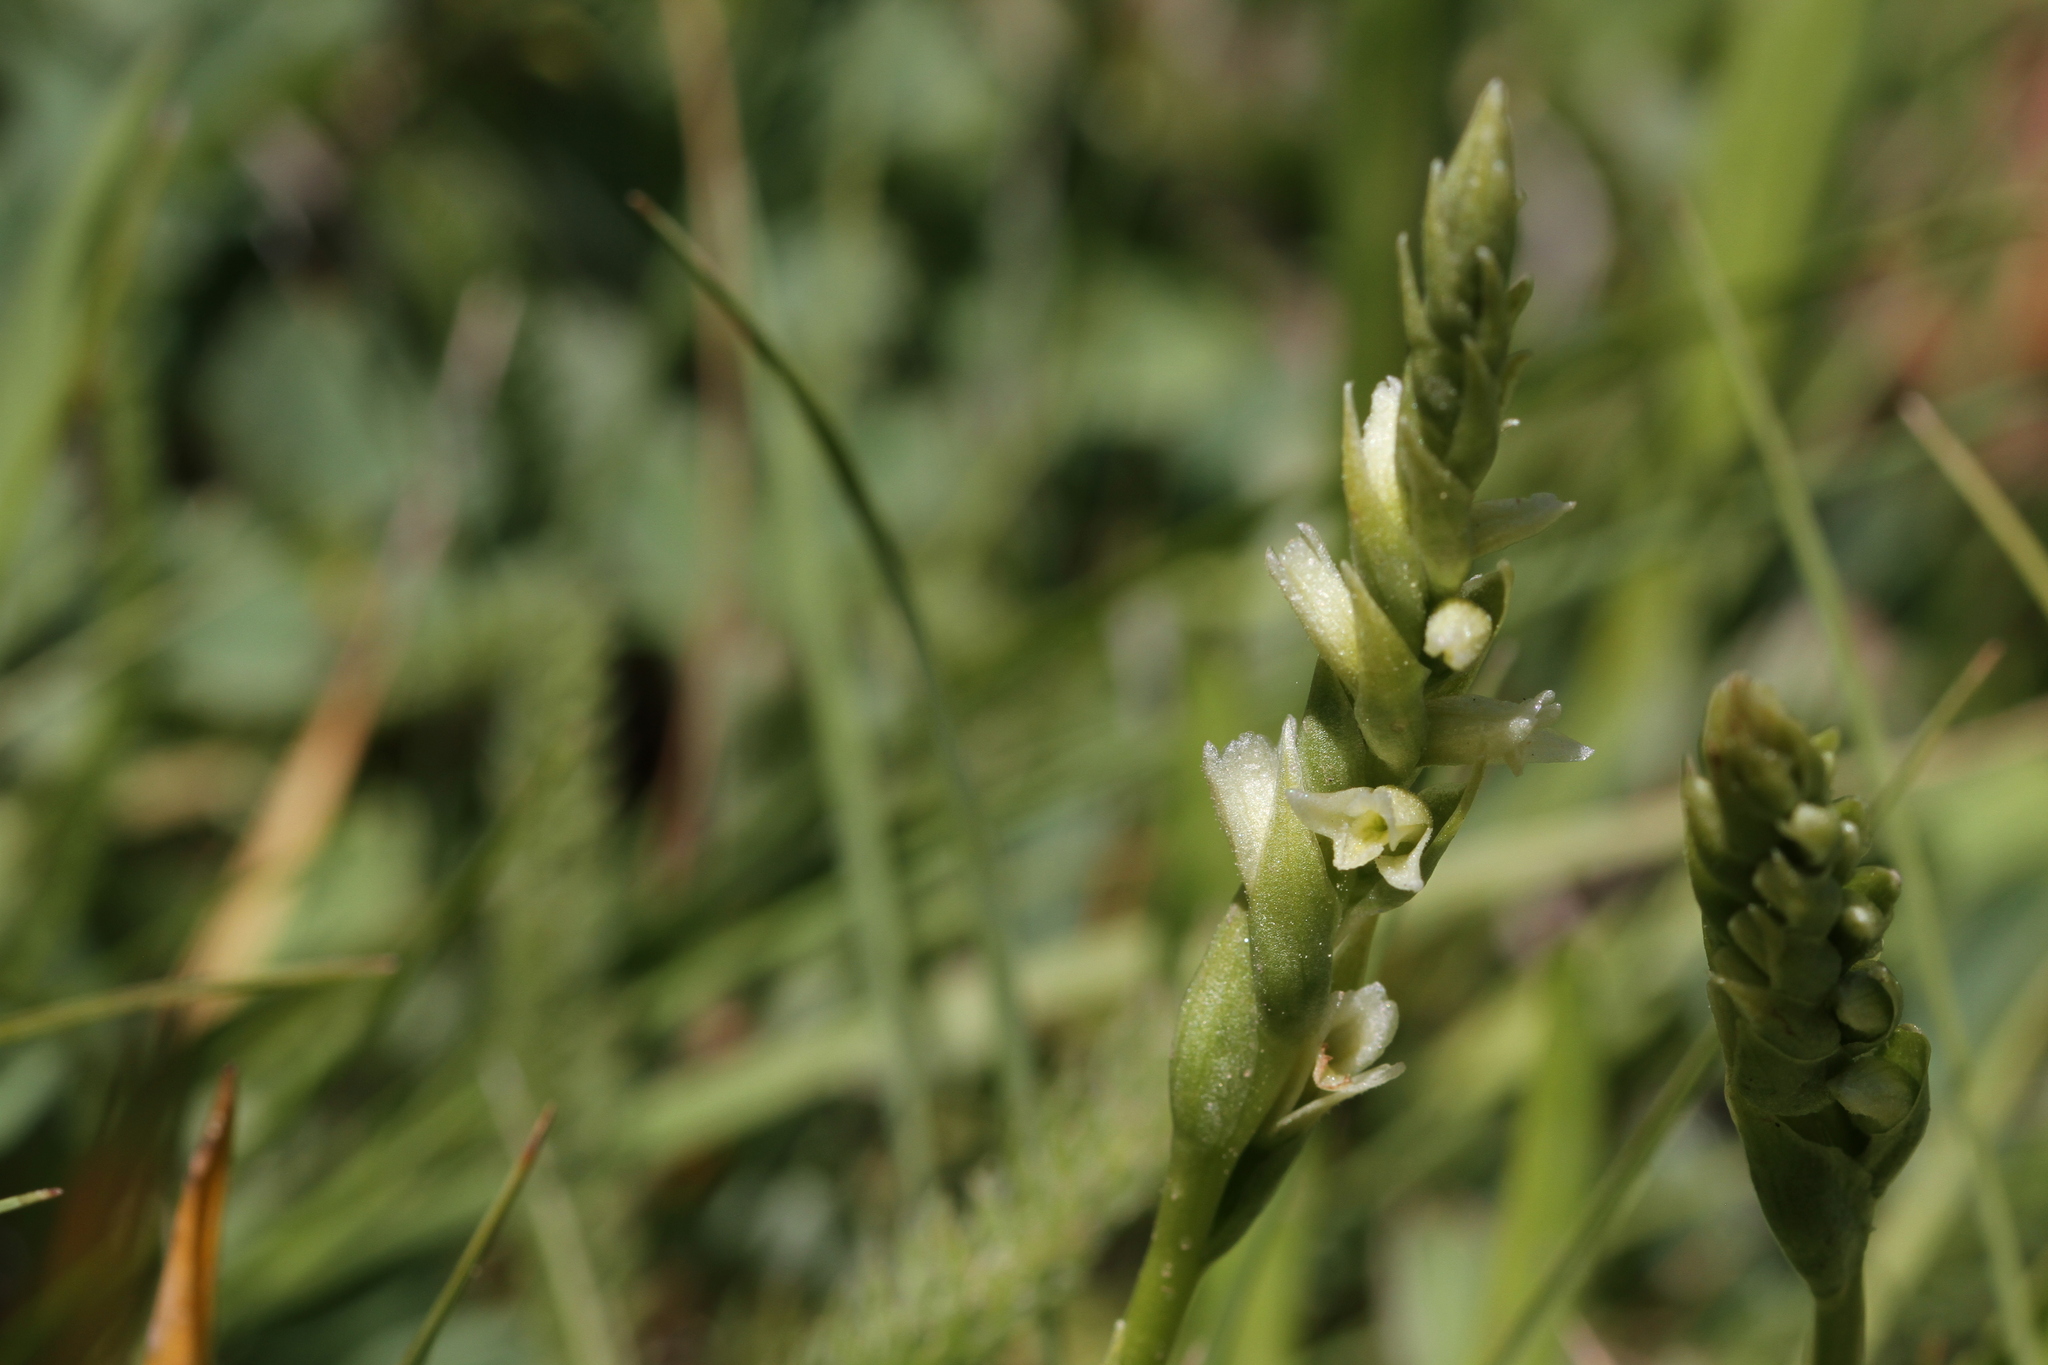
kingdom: Plantae
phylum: Tracheophyta
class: Liliopsida
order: Asparagales
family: Orchidaceae
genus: Spiranthes
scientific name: Spiranthes stellata
